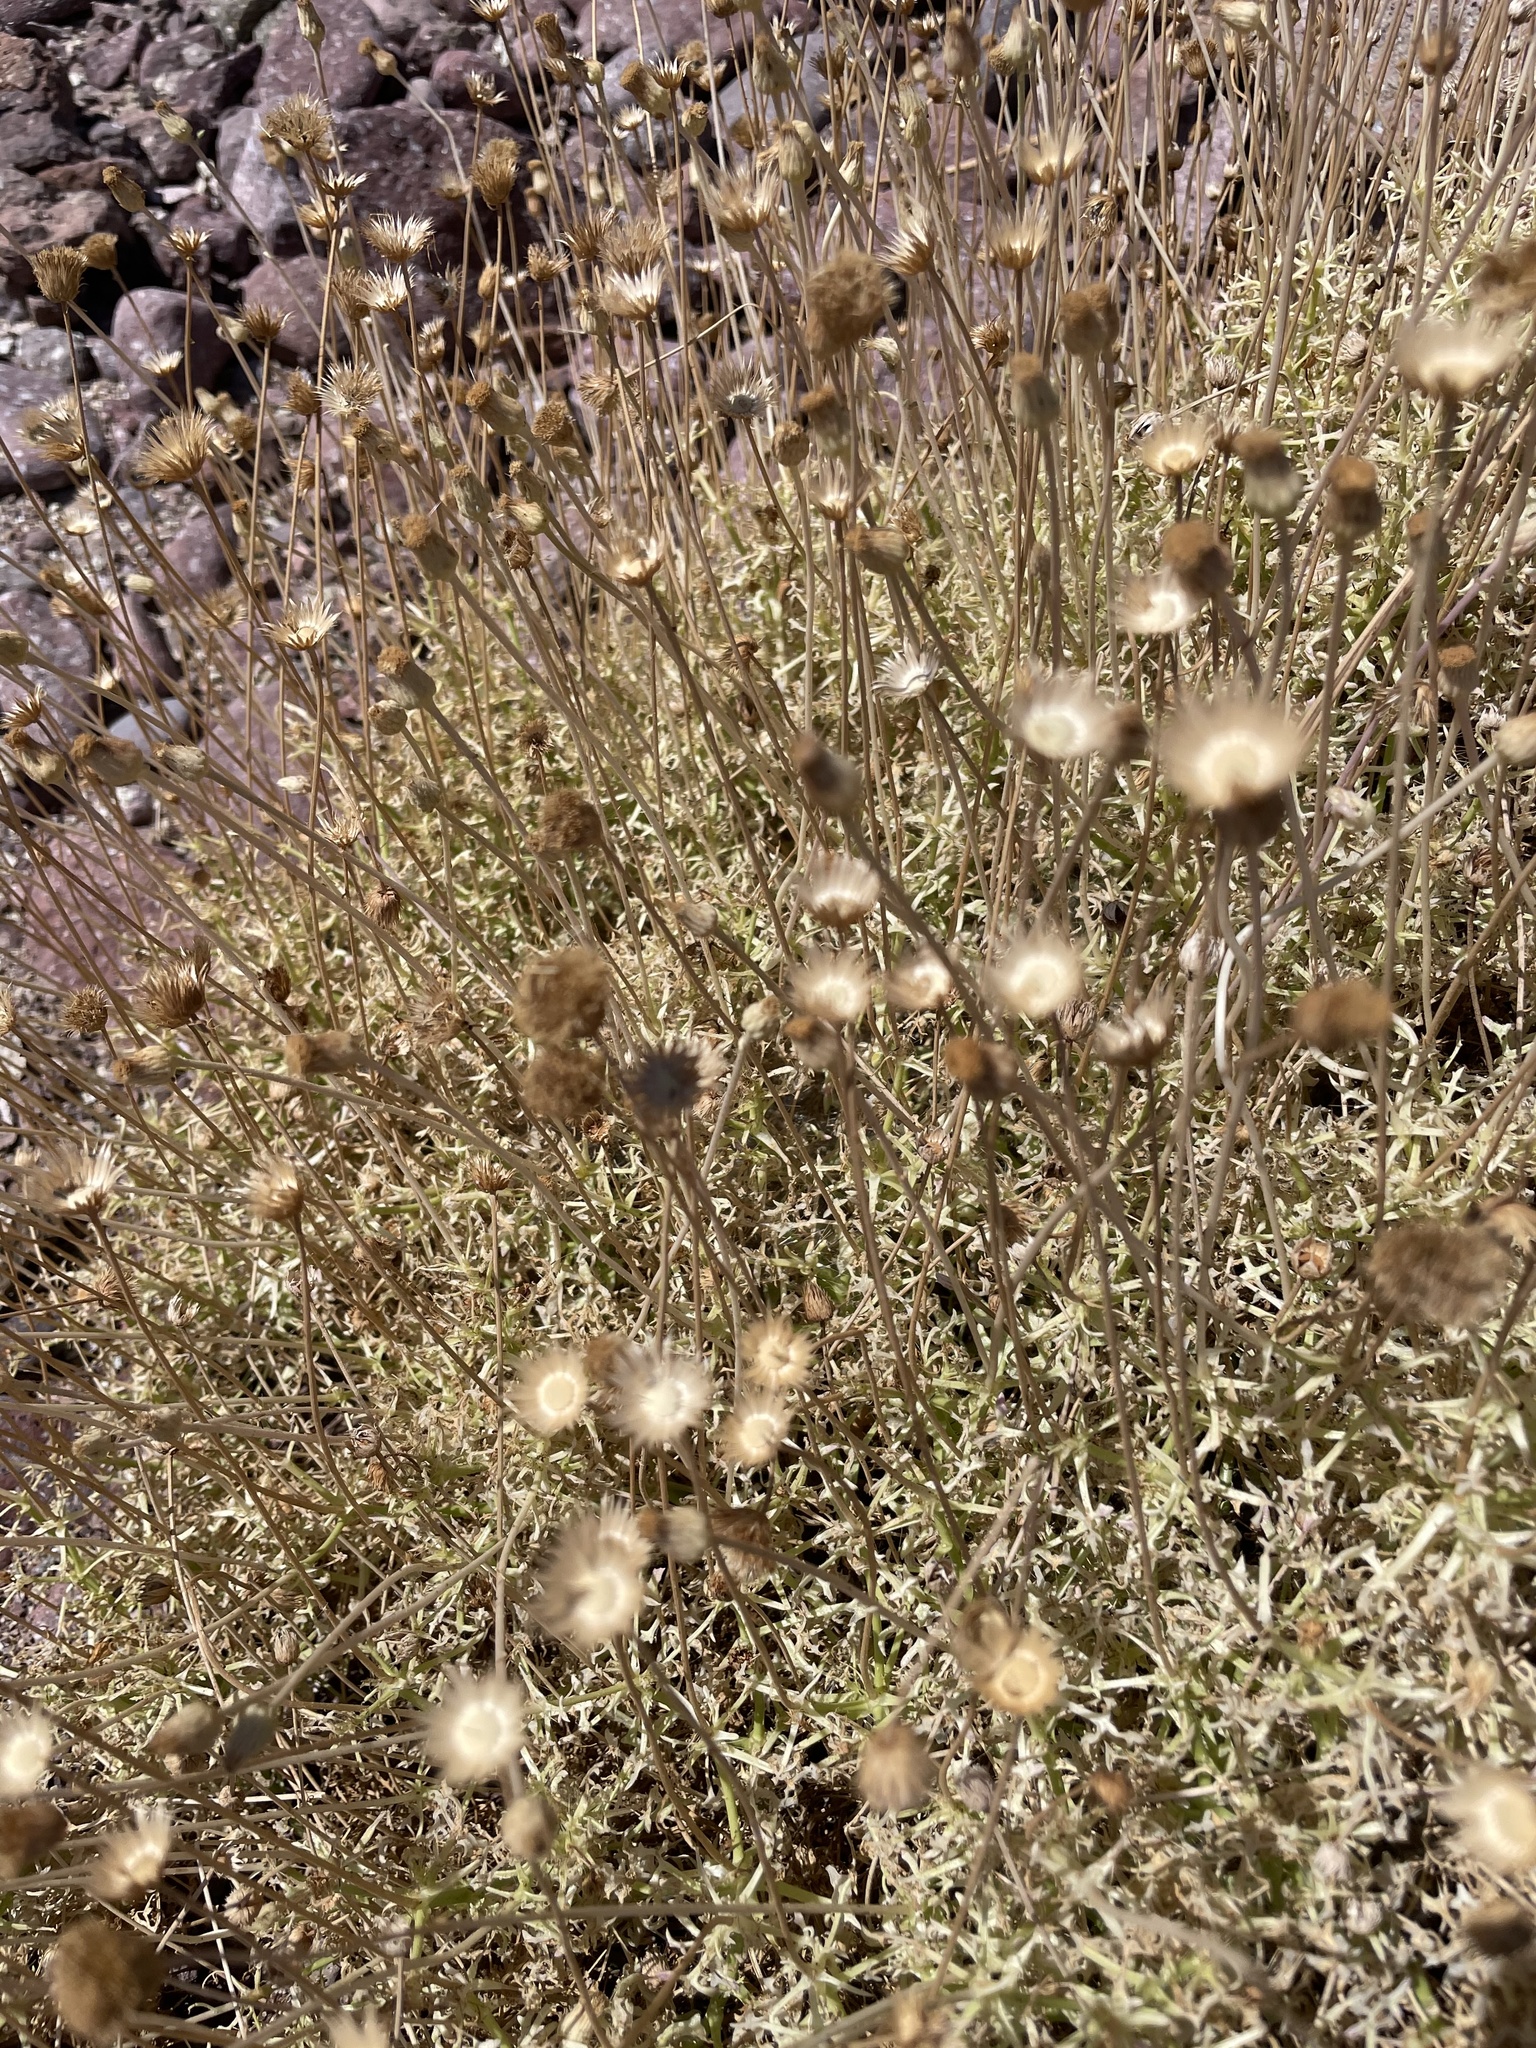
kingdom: Plantae
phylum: Tracheophyta
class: Magnoliopsida
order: Asterales
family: Asteraceae
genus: Hofmeisteria
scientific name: Hofmeisteria fasciculata
